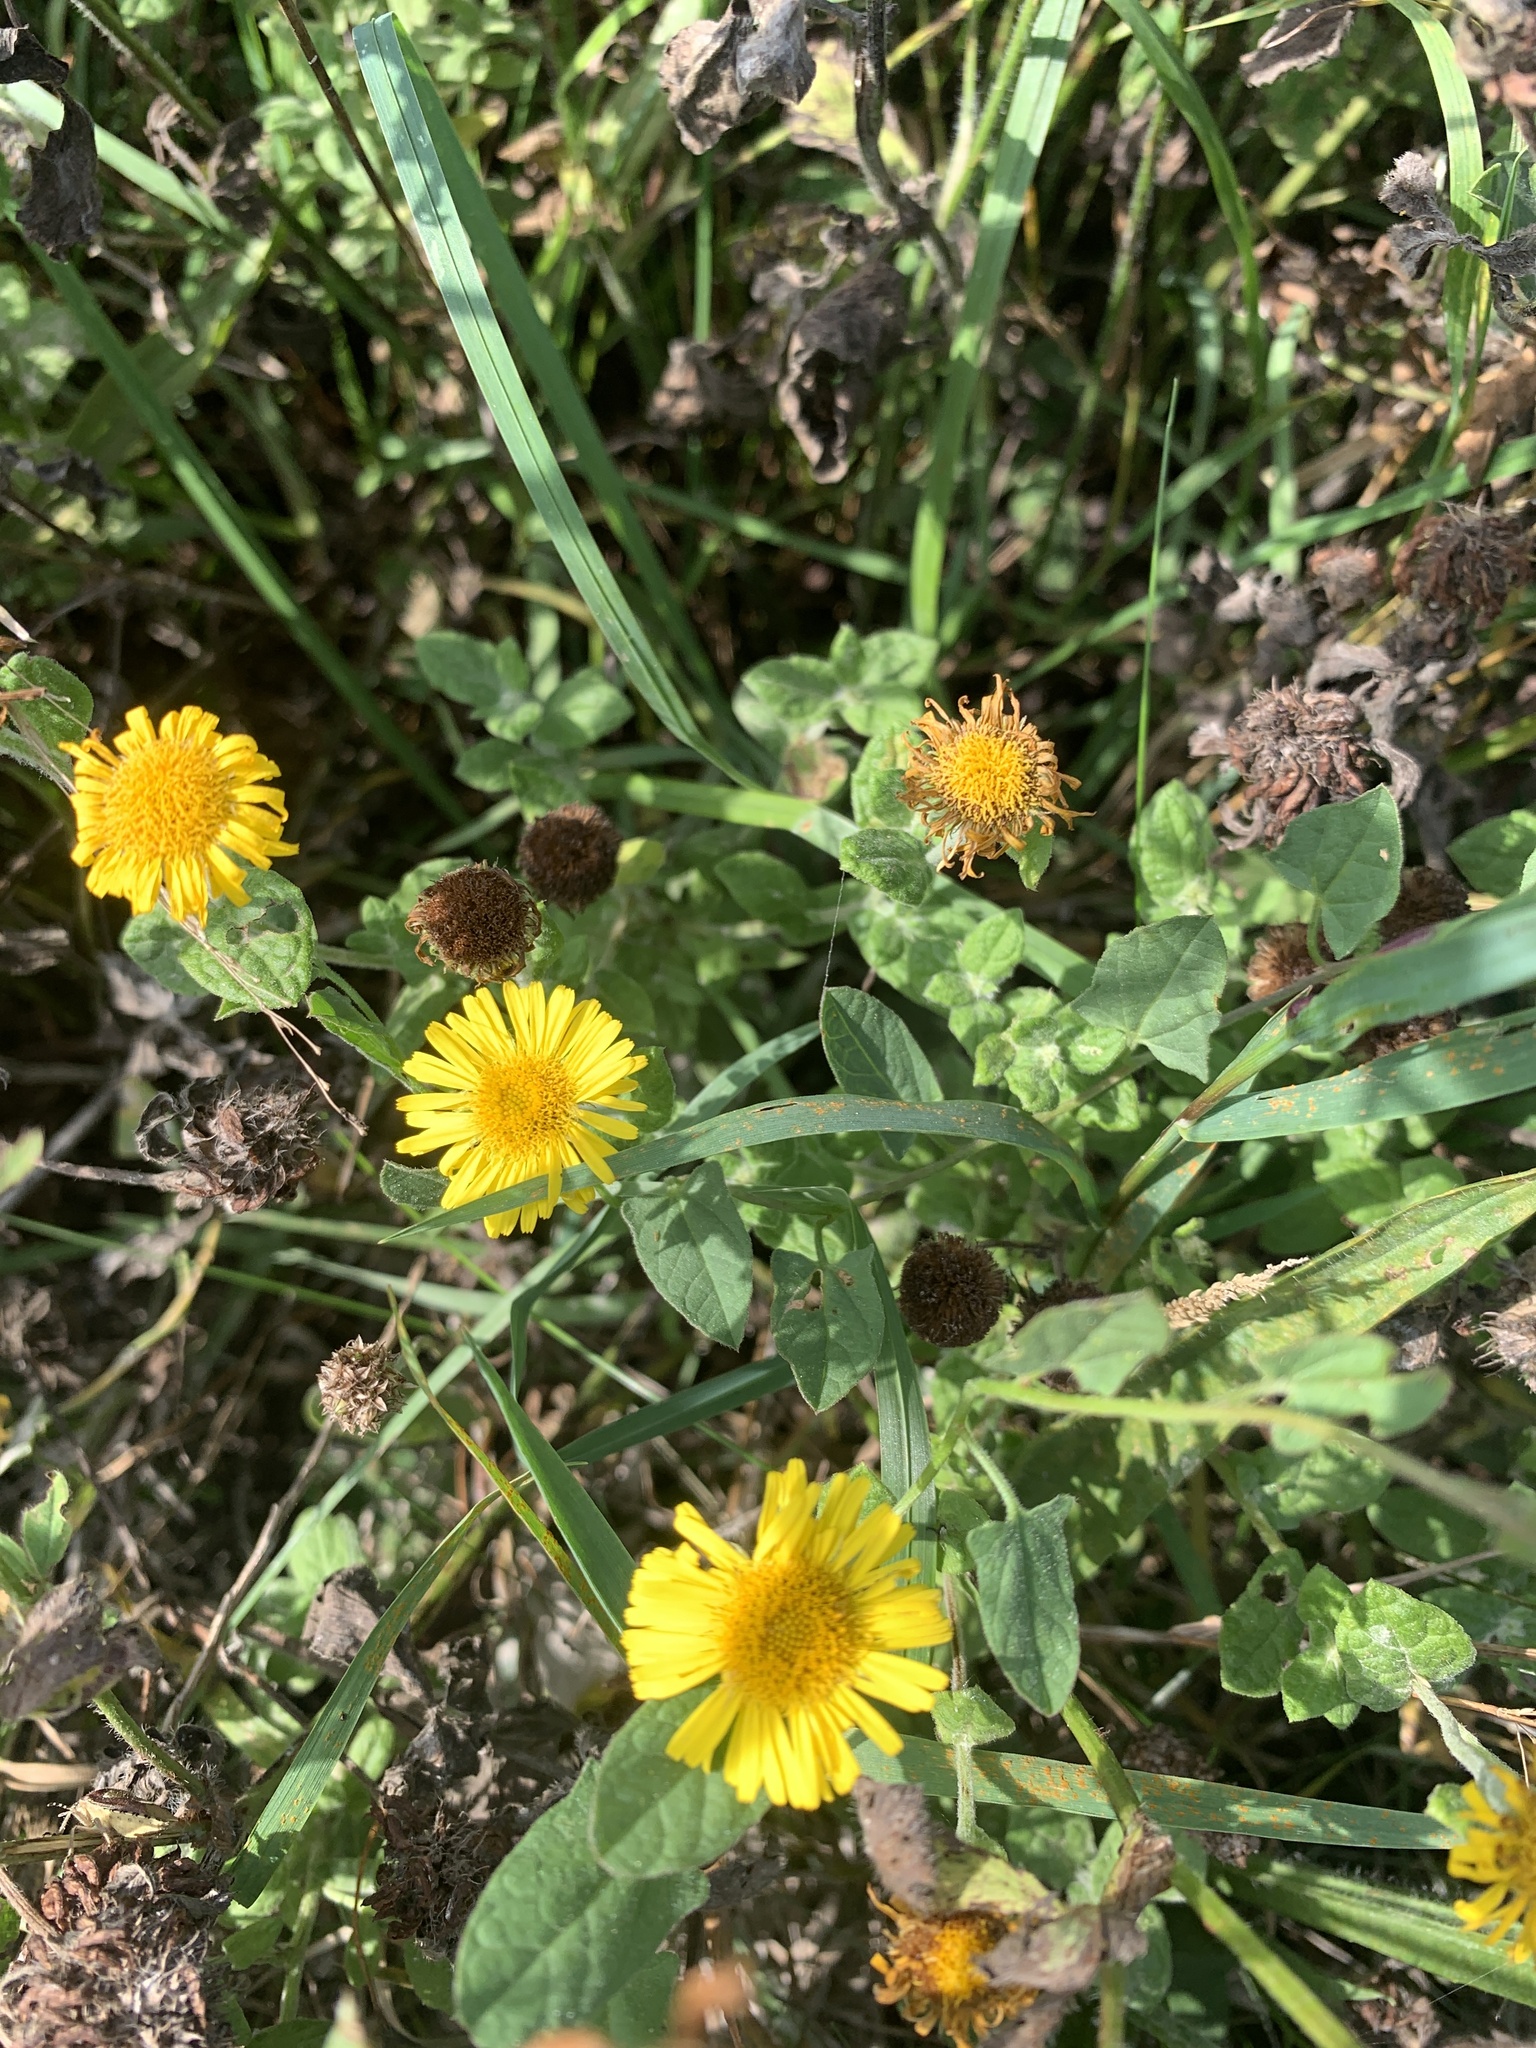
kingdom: Plantae
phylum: Tracheophyta
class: Magnoliopsida
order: Asterales
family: Asteraceae
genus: Pulicaria
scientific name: Pulicaria dysenterica
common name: Common fleabane
